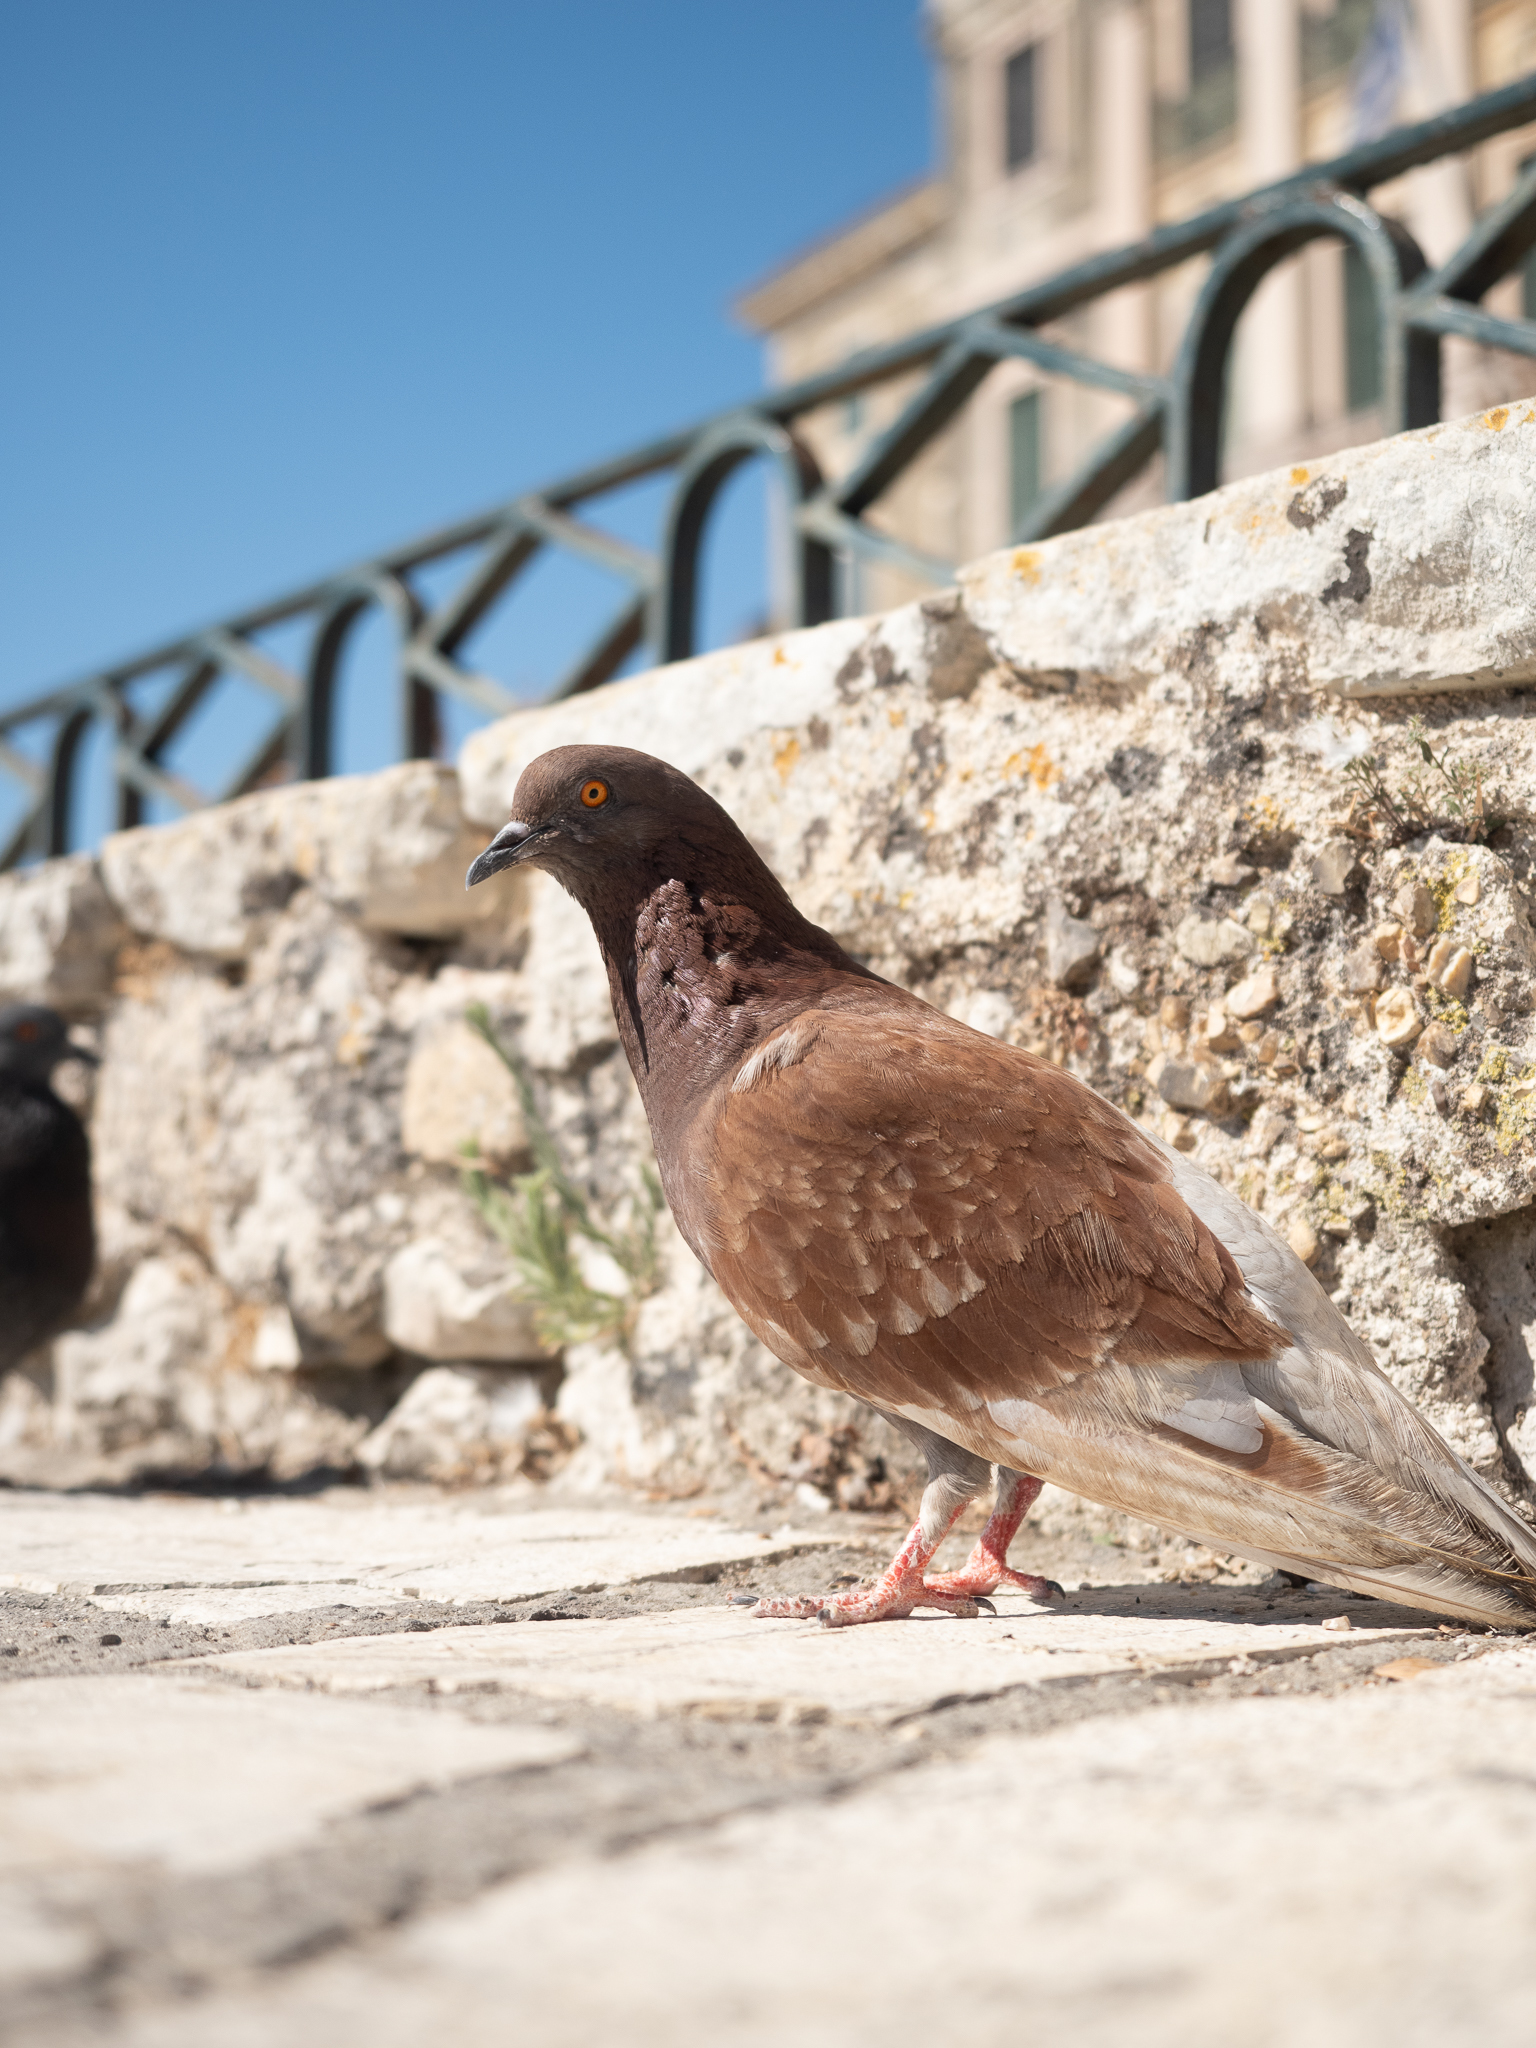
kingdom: Animalia
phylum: Chordata
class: Aves
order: Columbiformes
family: Columbidae
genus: Columba
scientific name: Columba livia
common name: Rock pigeon
